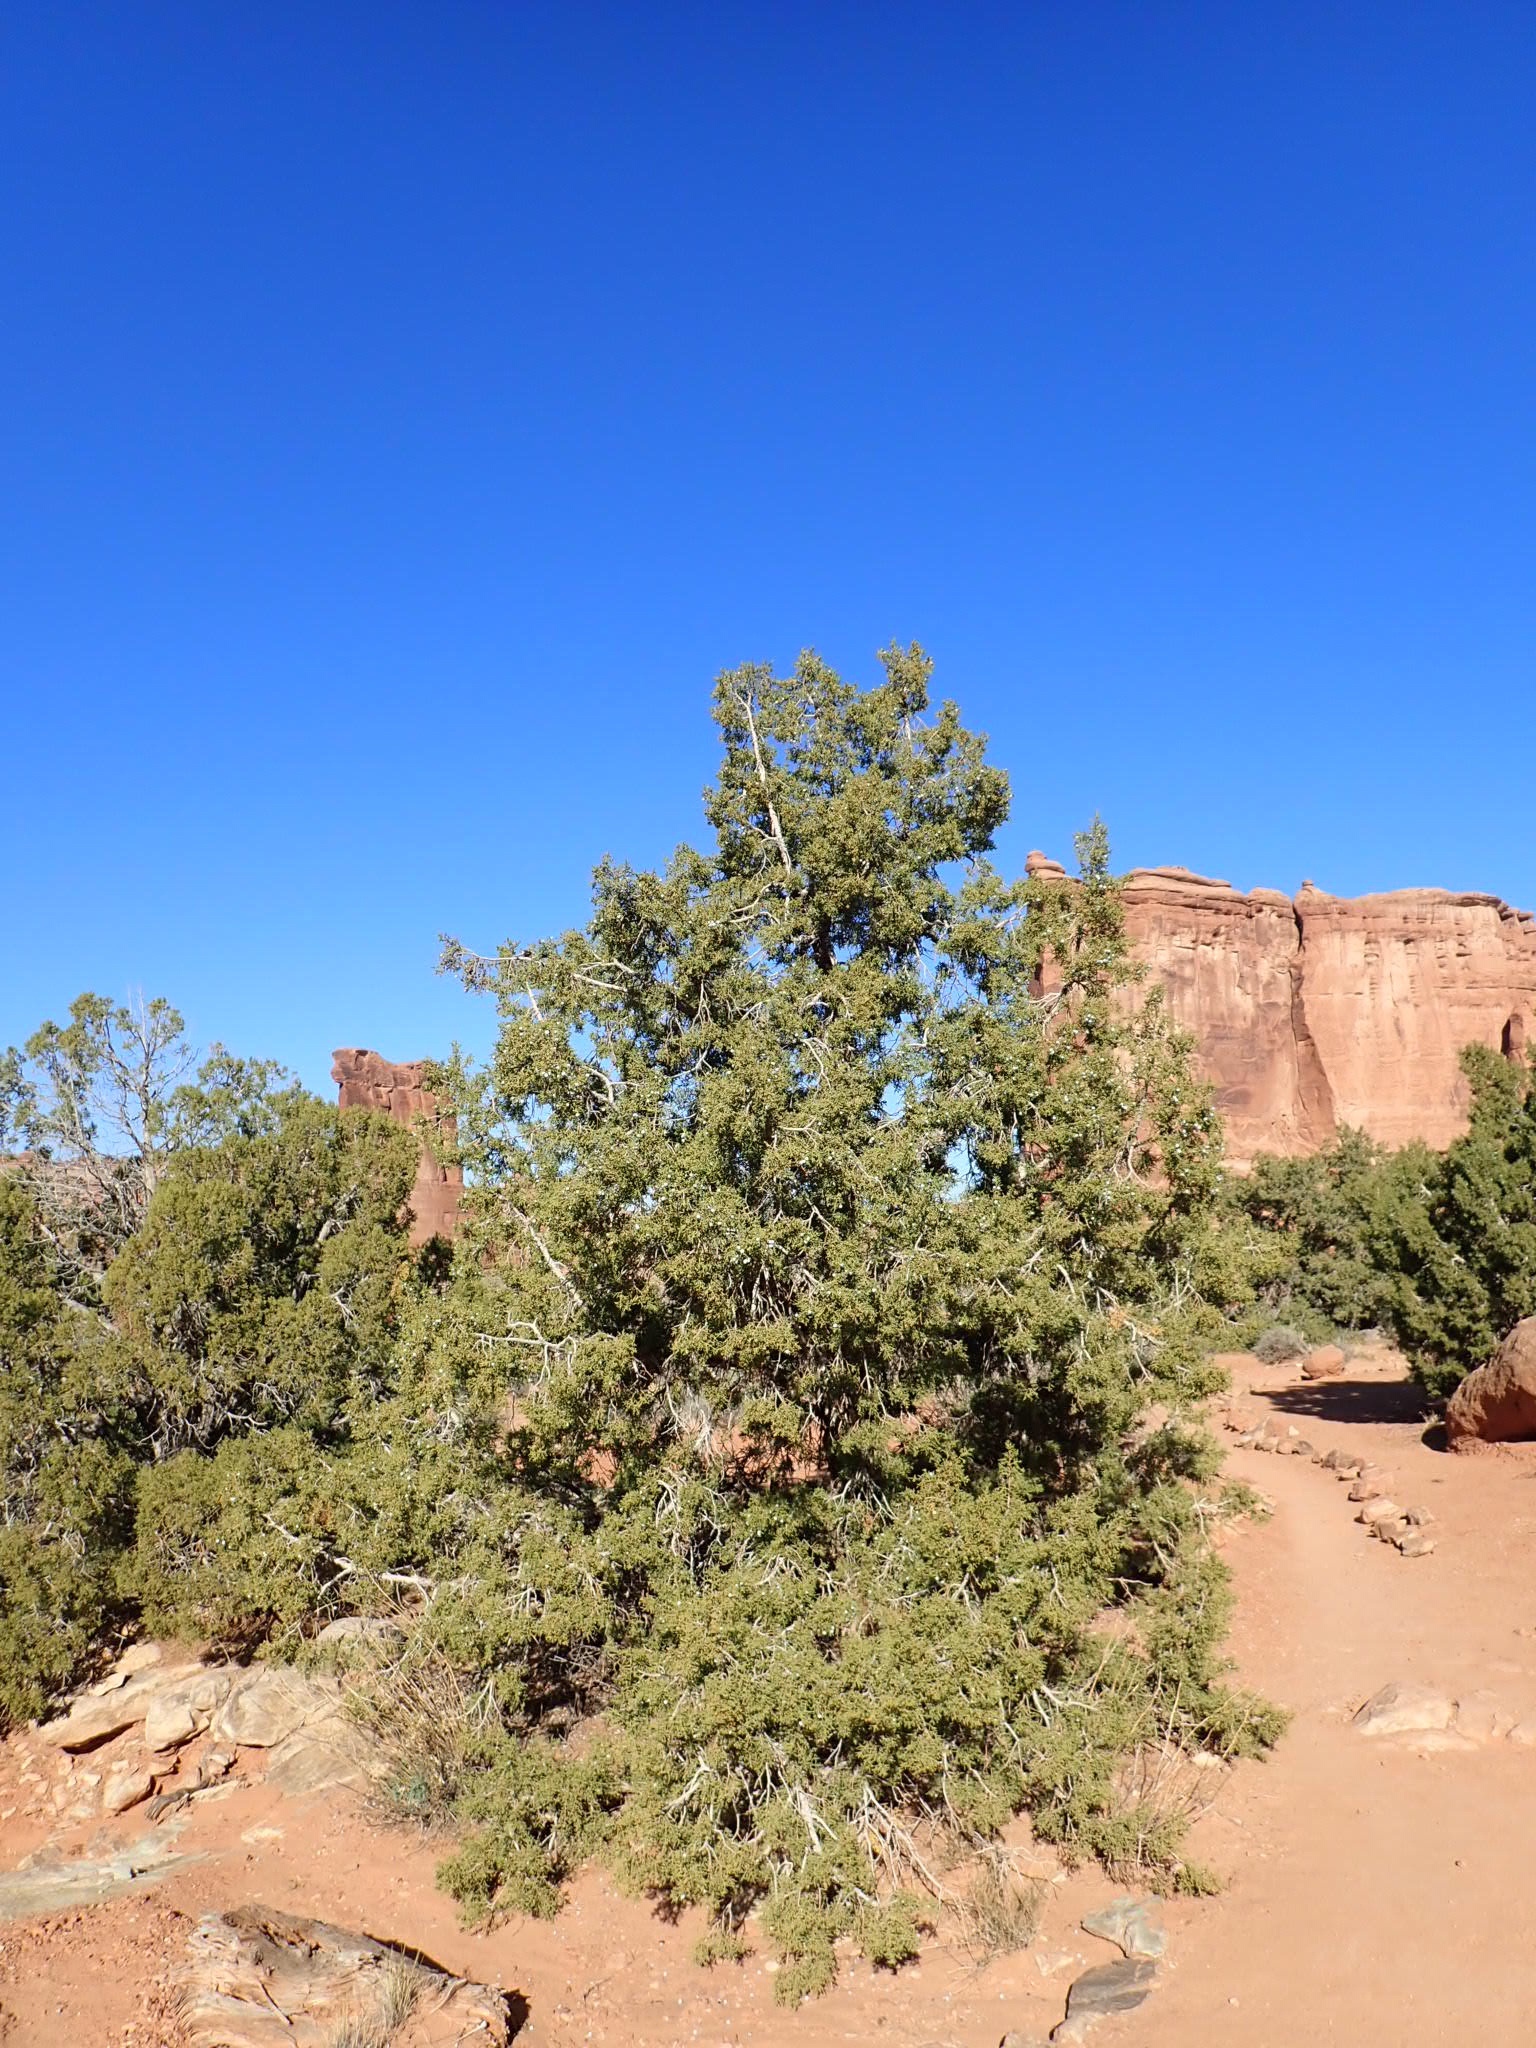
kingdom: Plantae
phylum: Tracheophyta
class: Pinopsida
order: Pinales
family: Cupressaceae
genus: Juniperus
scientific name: Juniperus osteosperma
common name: Utah juniper
